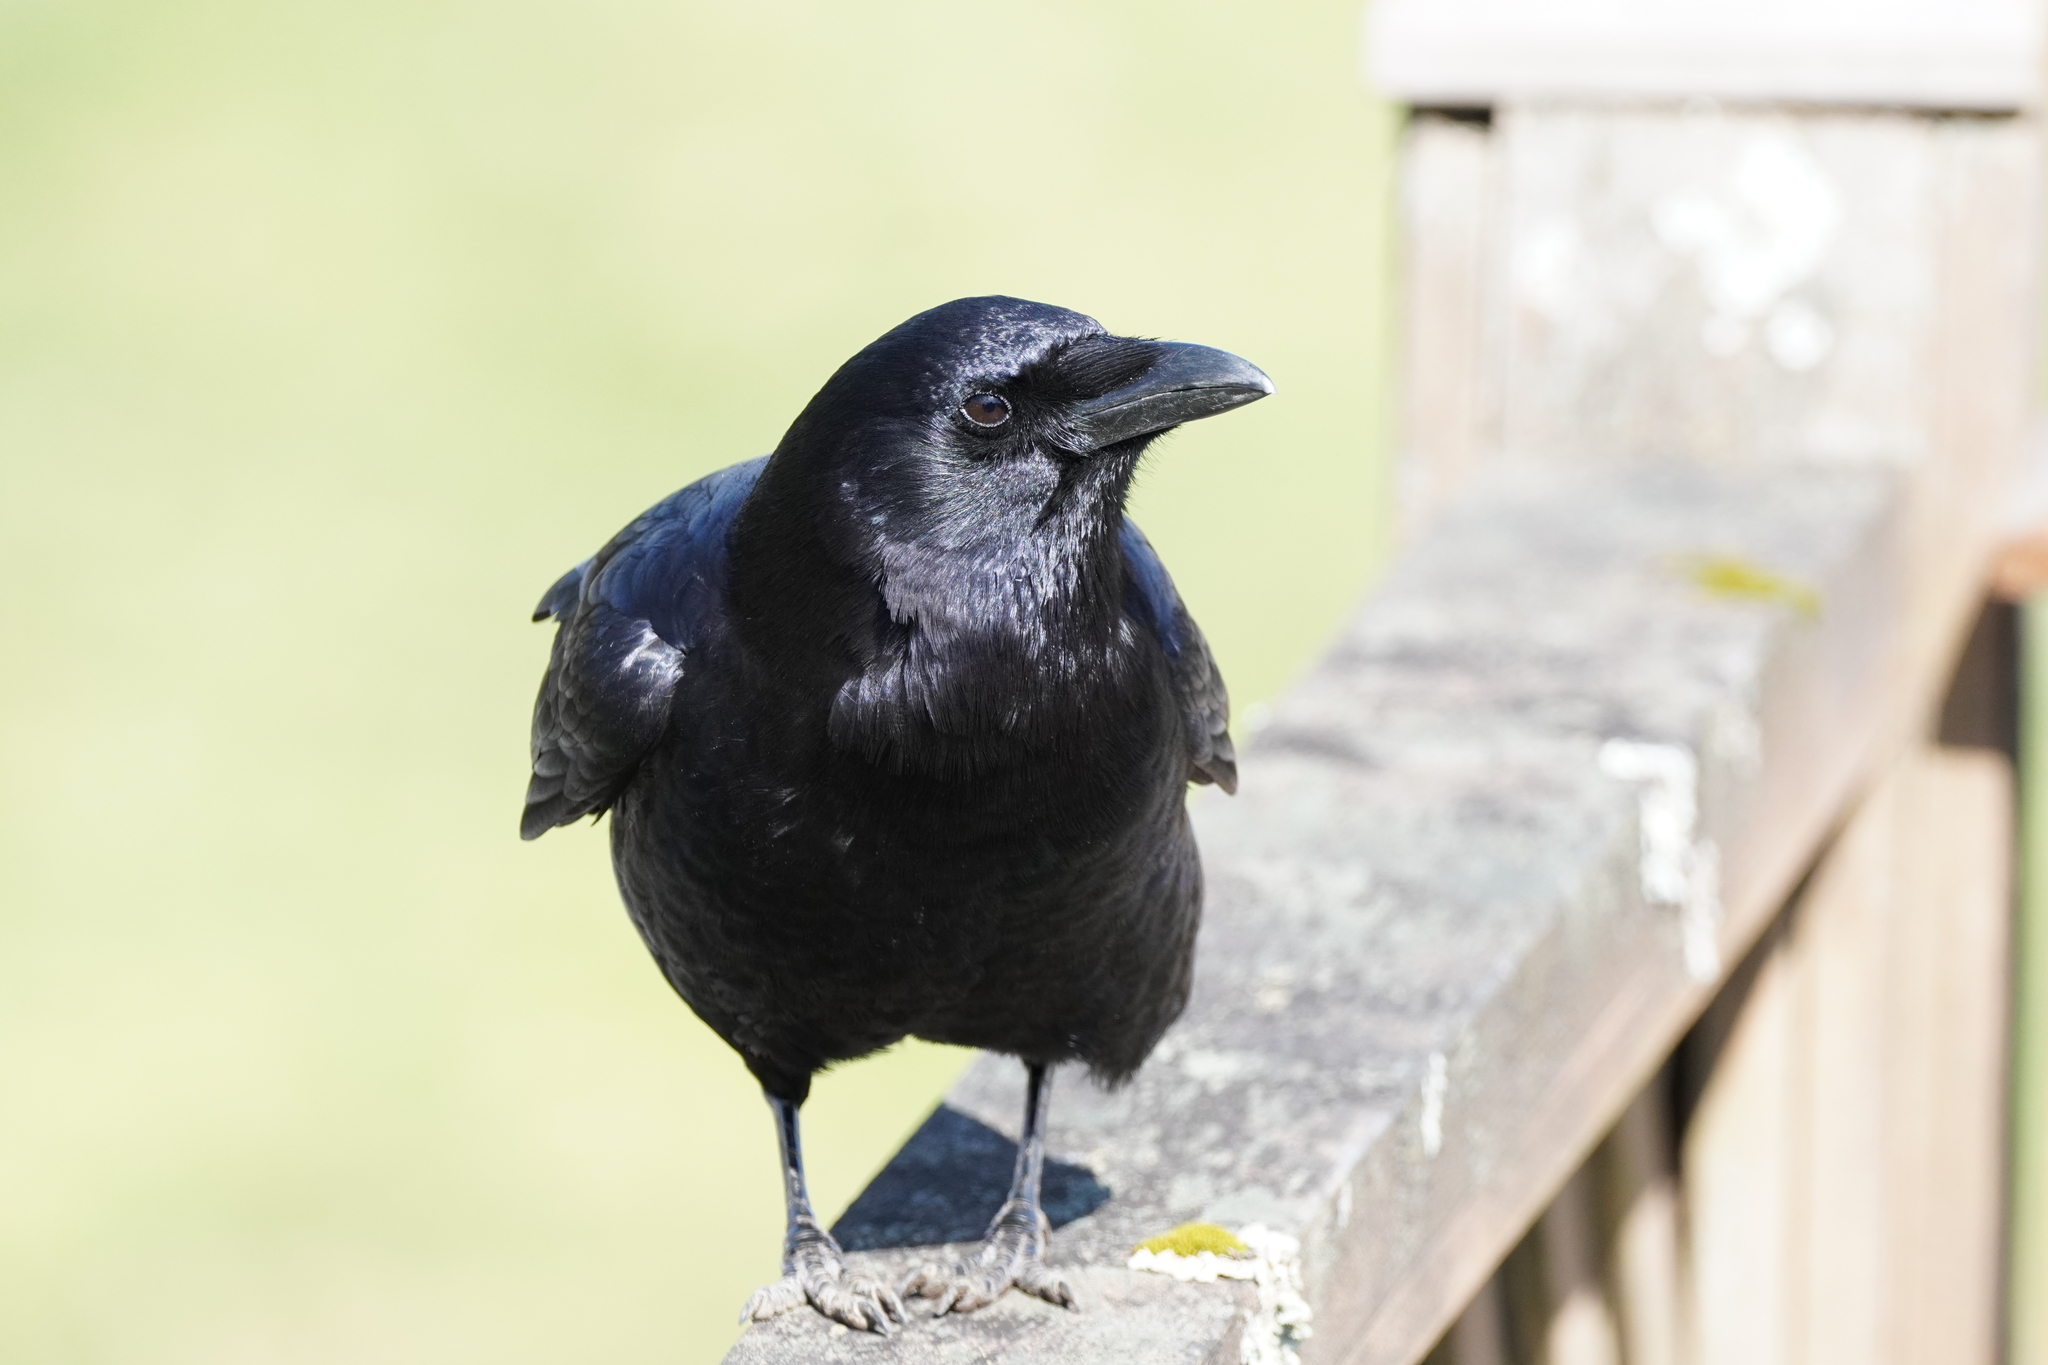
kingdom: Animalia
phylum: Chordata
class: Aves
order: Passeriformes
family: Corvidae
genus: Corvus
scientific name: Corvus brachyrhynchos
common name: American crow
